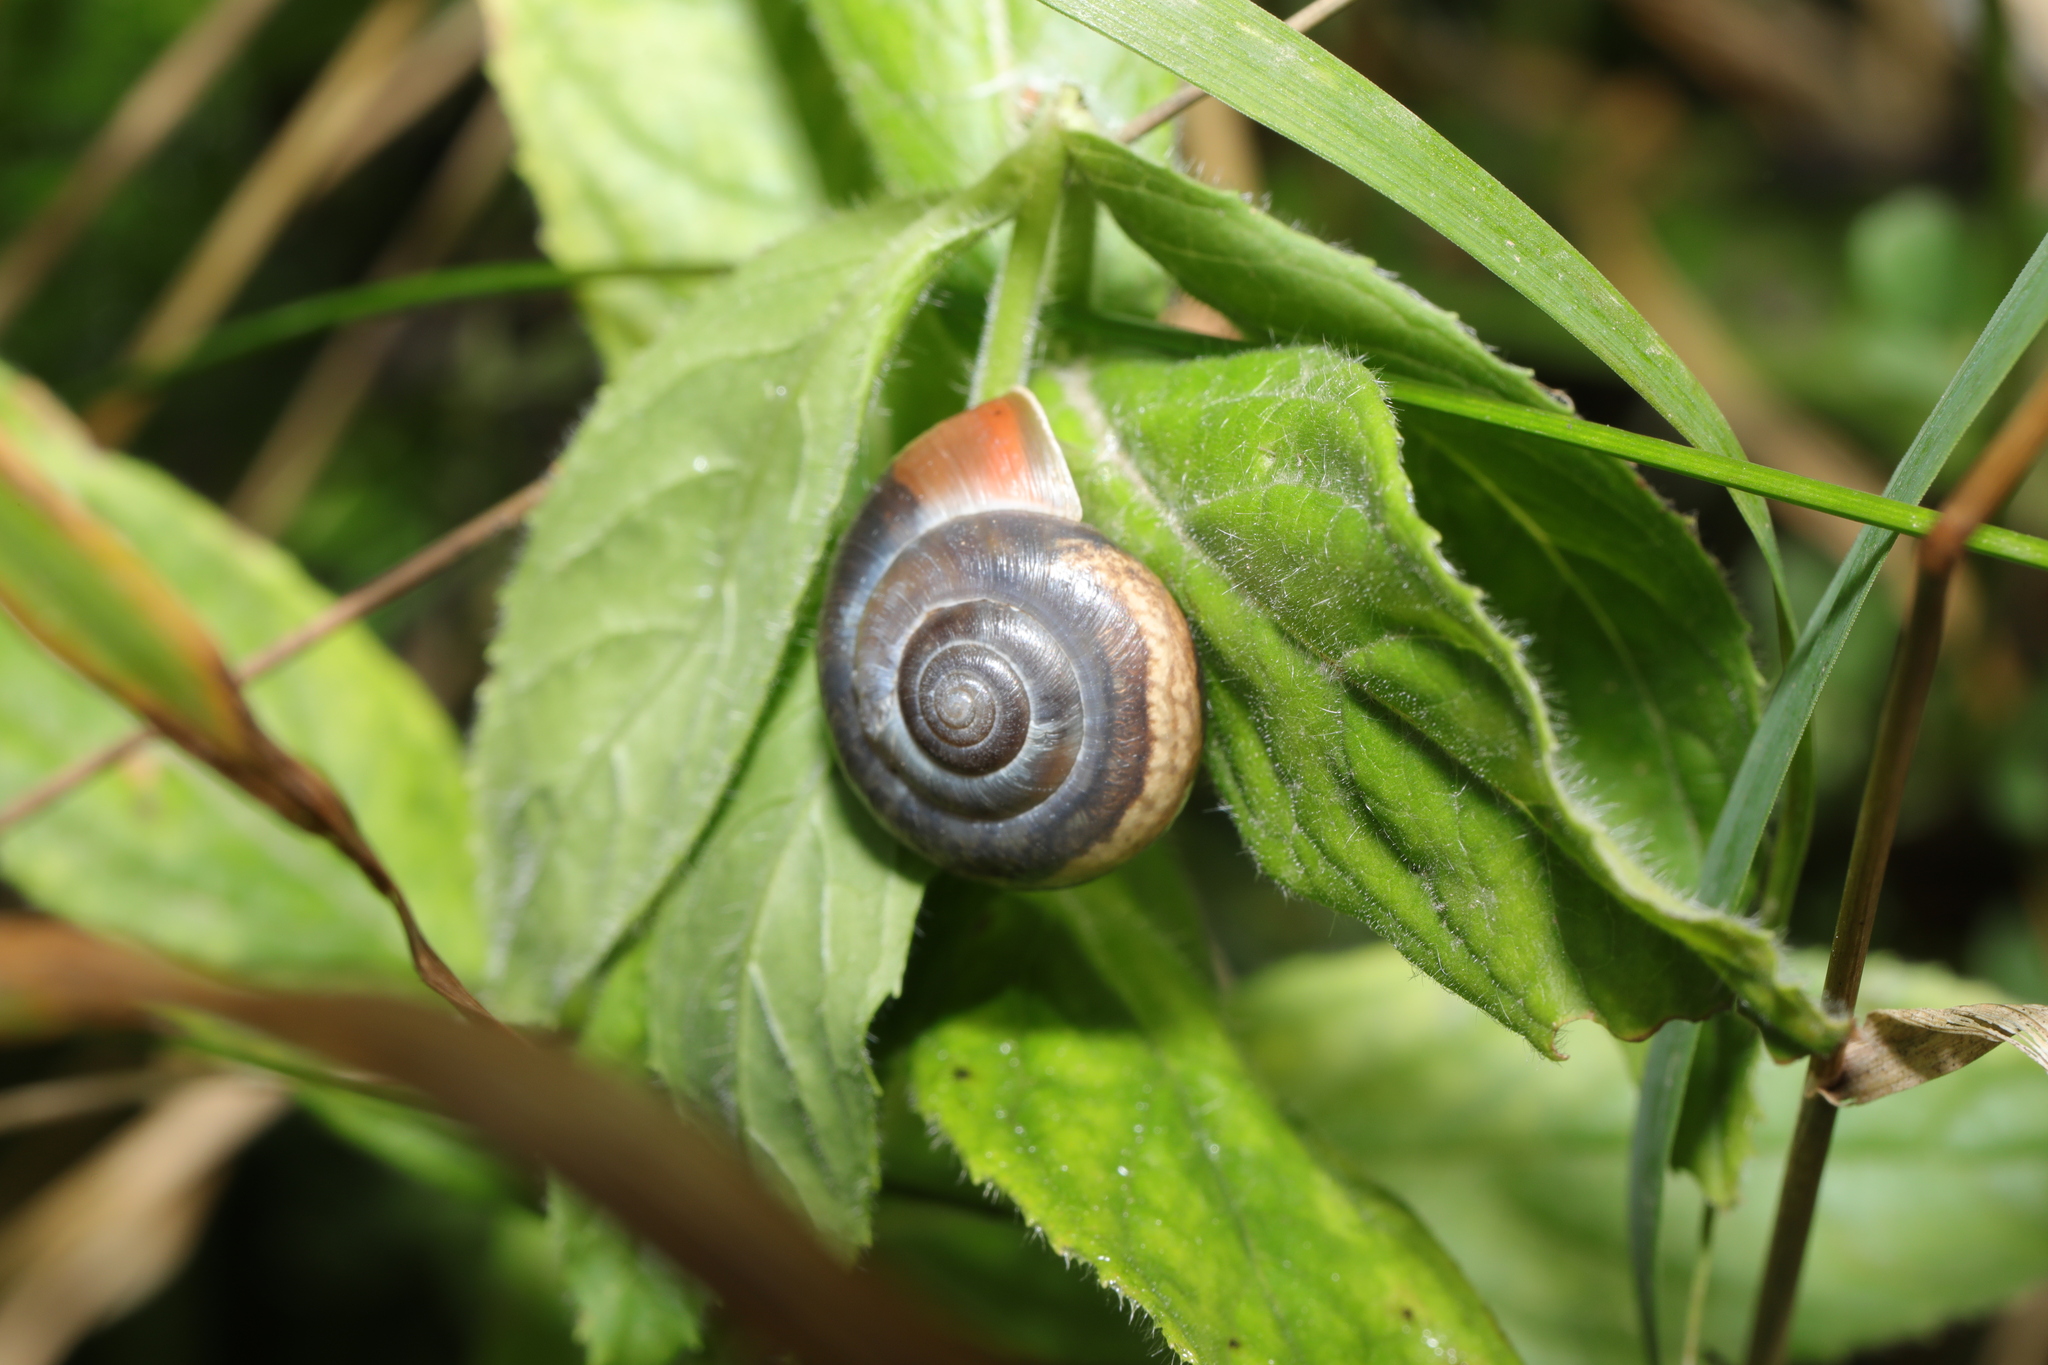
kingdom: Animalia
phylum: Mollusca
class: Gastropoda
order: Stylommatophora
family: Hygromiidae
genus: Monacha
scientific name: Monacha cantiana
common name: Kentish snail
